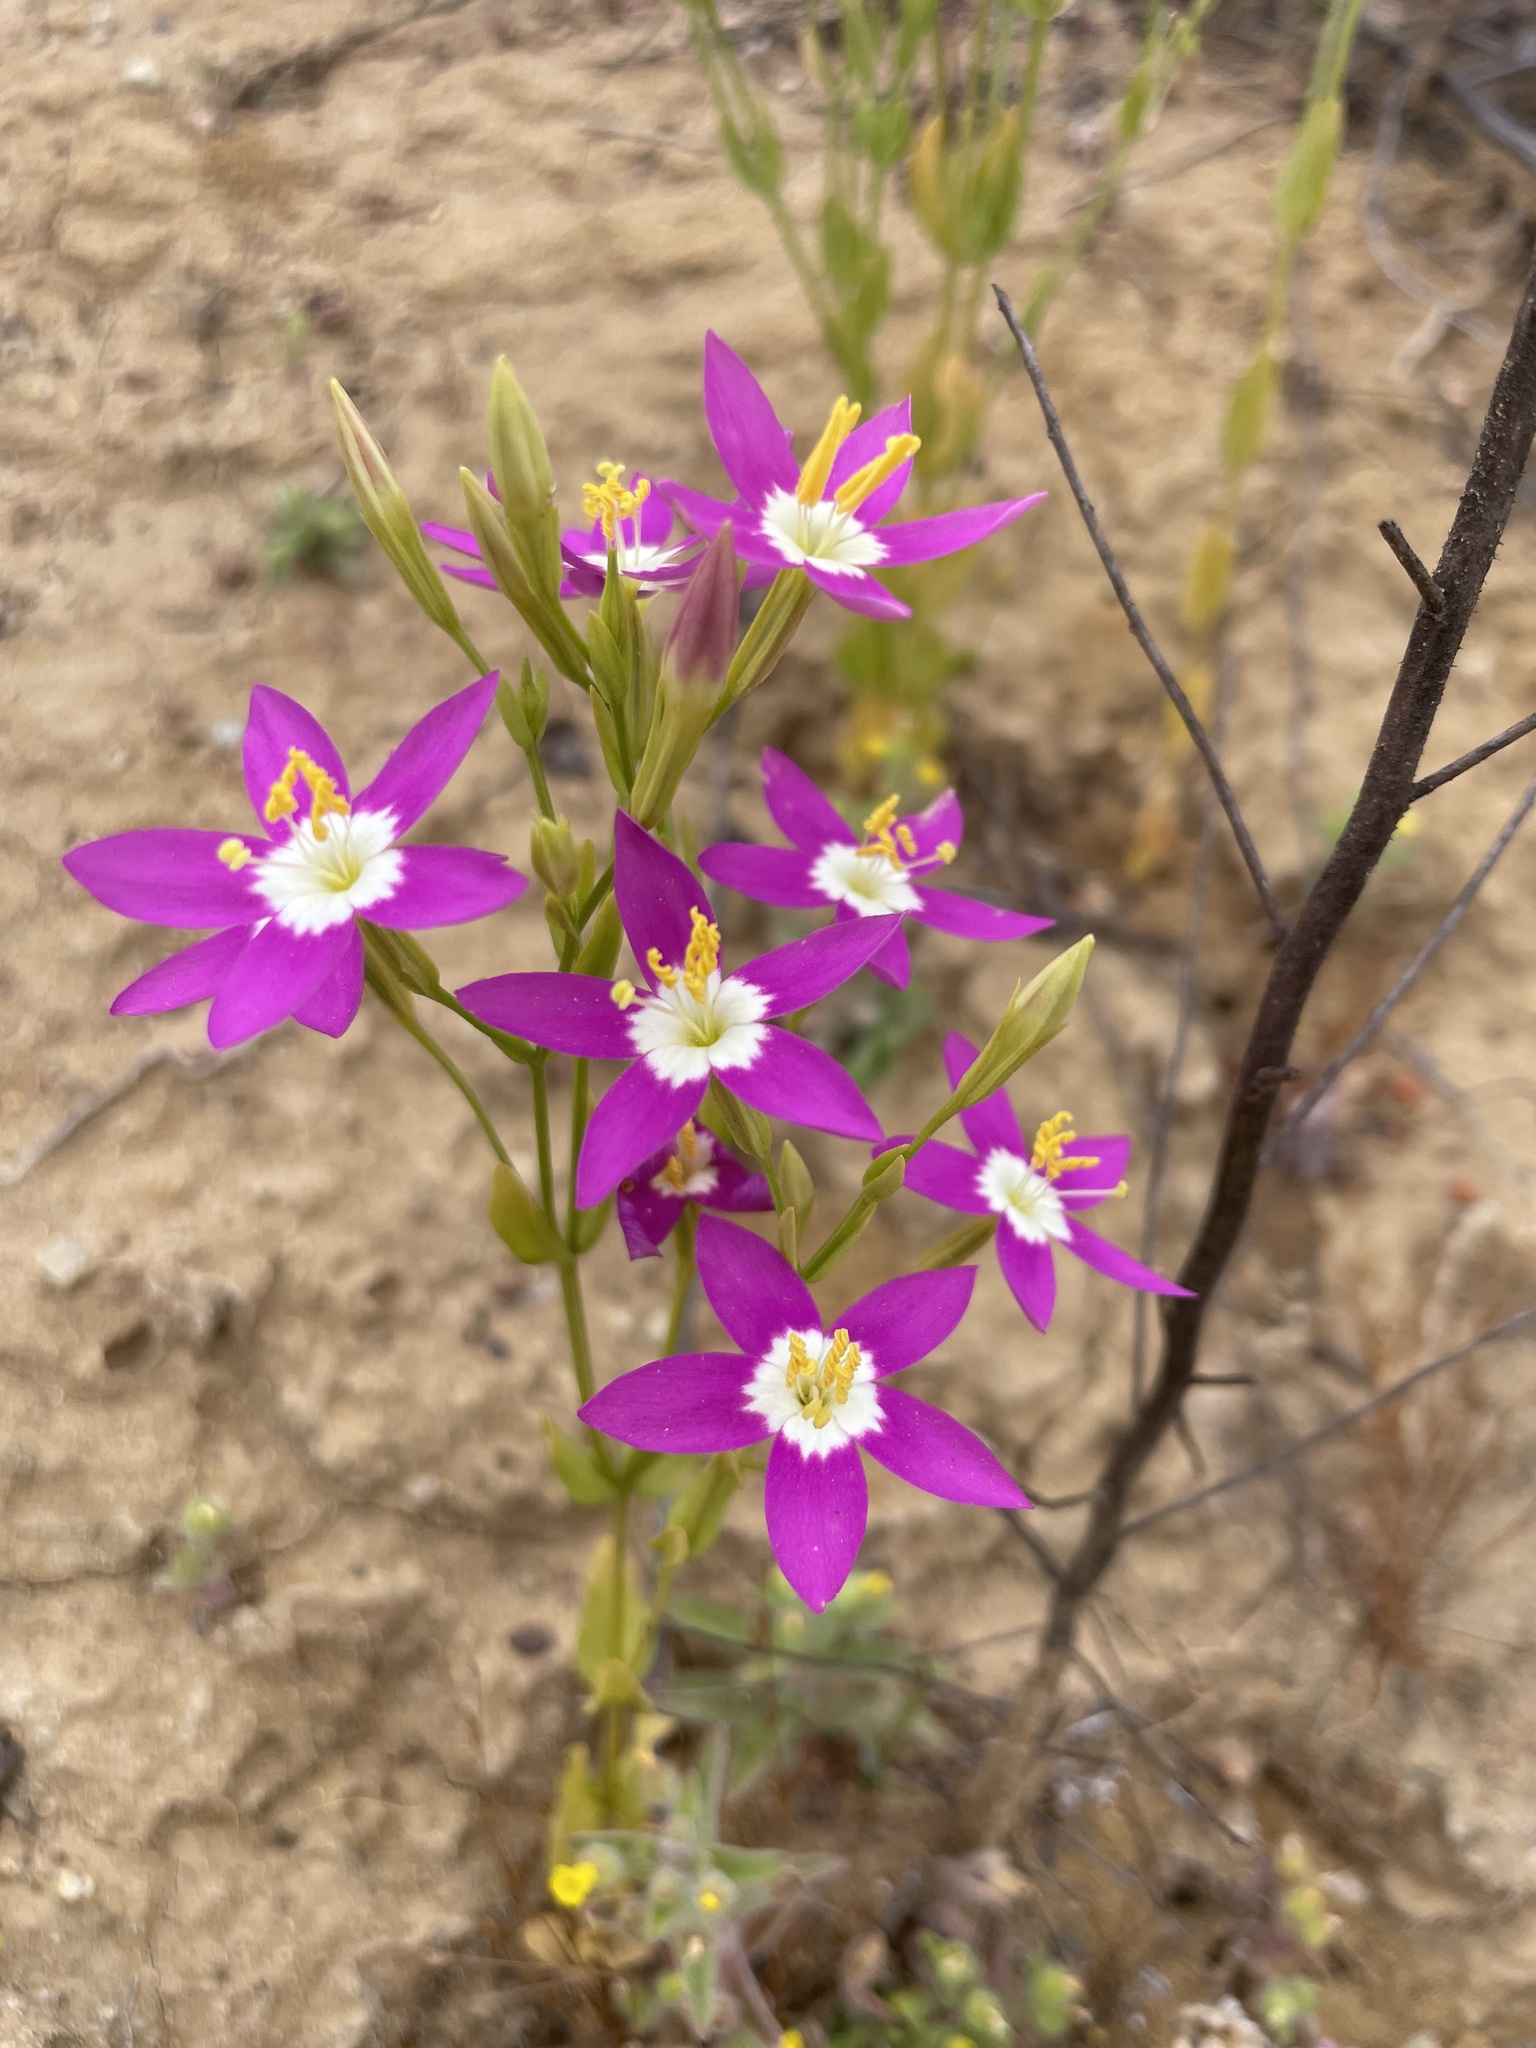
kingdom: Plantae
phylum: Tracheophyta
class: Magnoliopsida
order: Gentianales
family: Gentianaceae
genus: Zeltnera
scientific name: Zeltnera venusta
